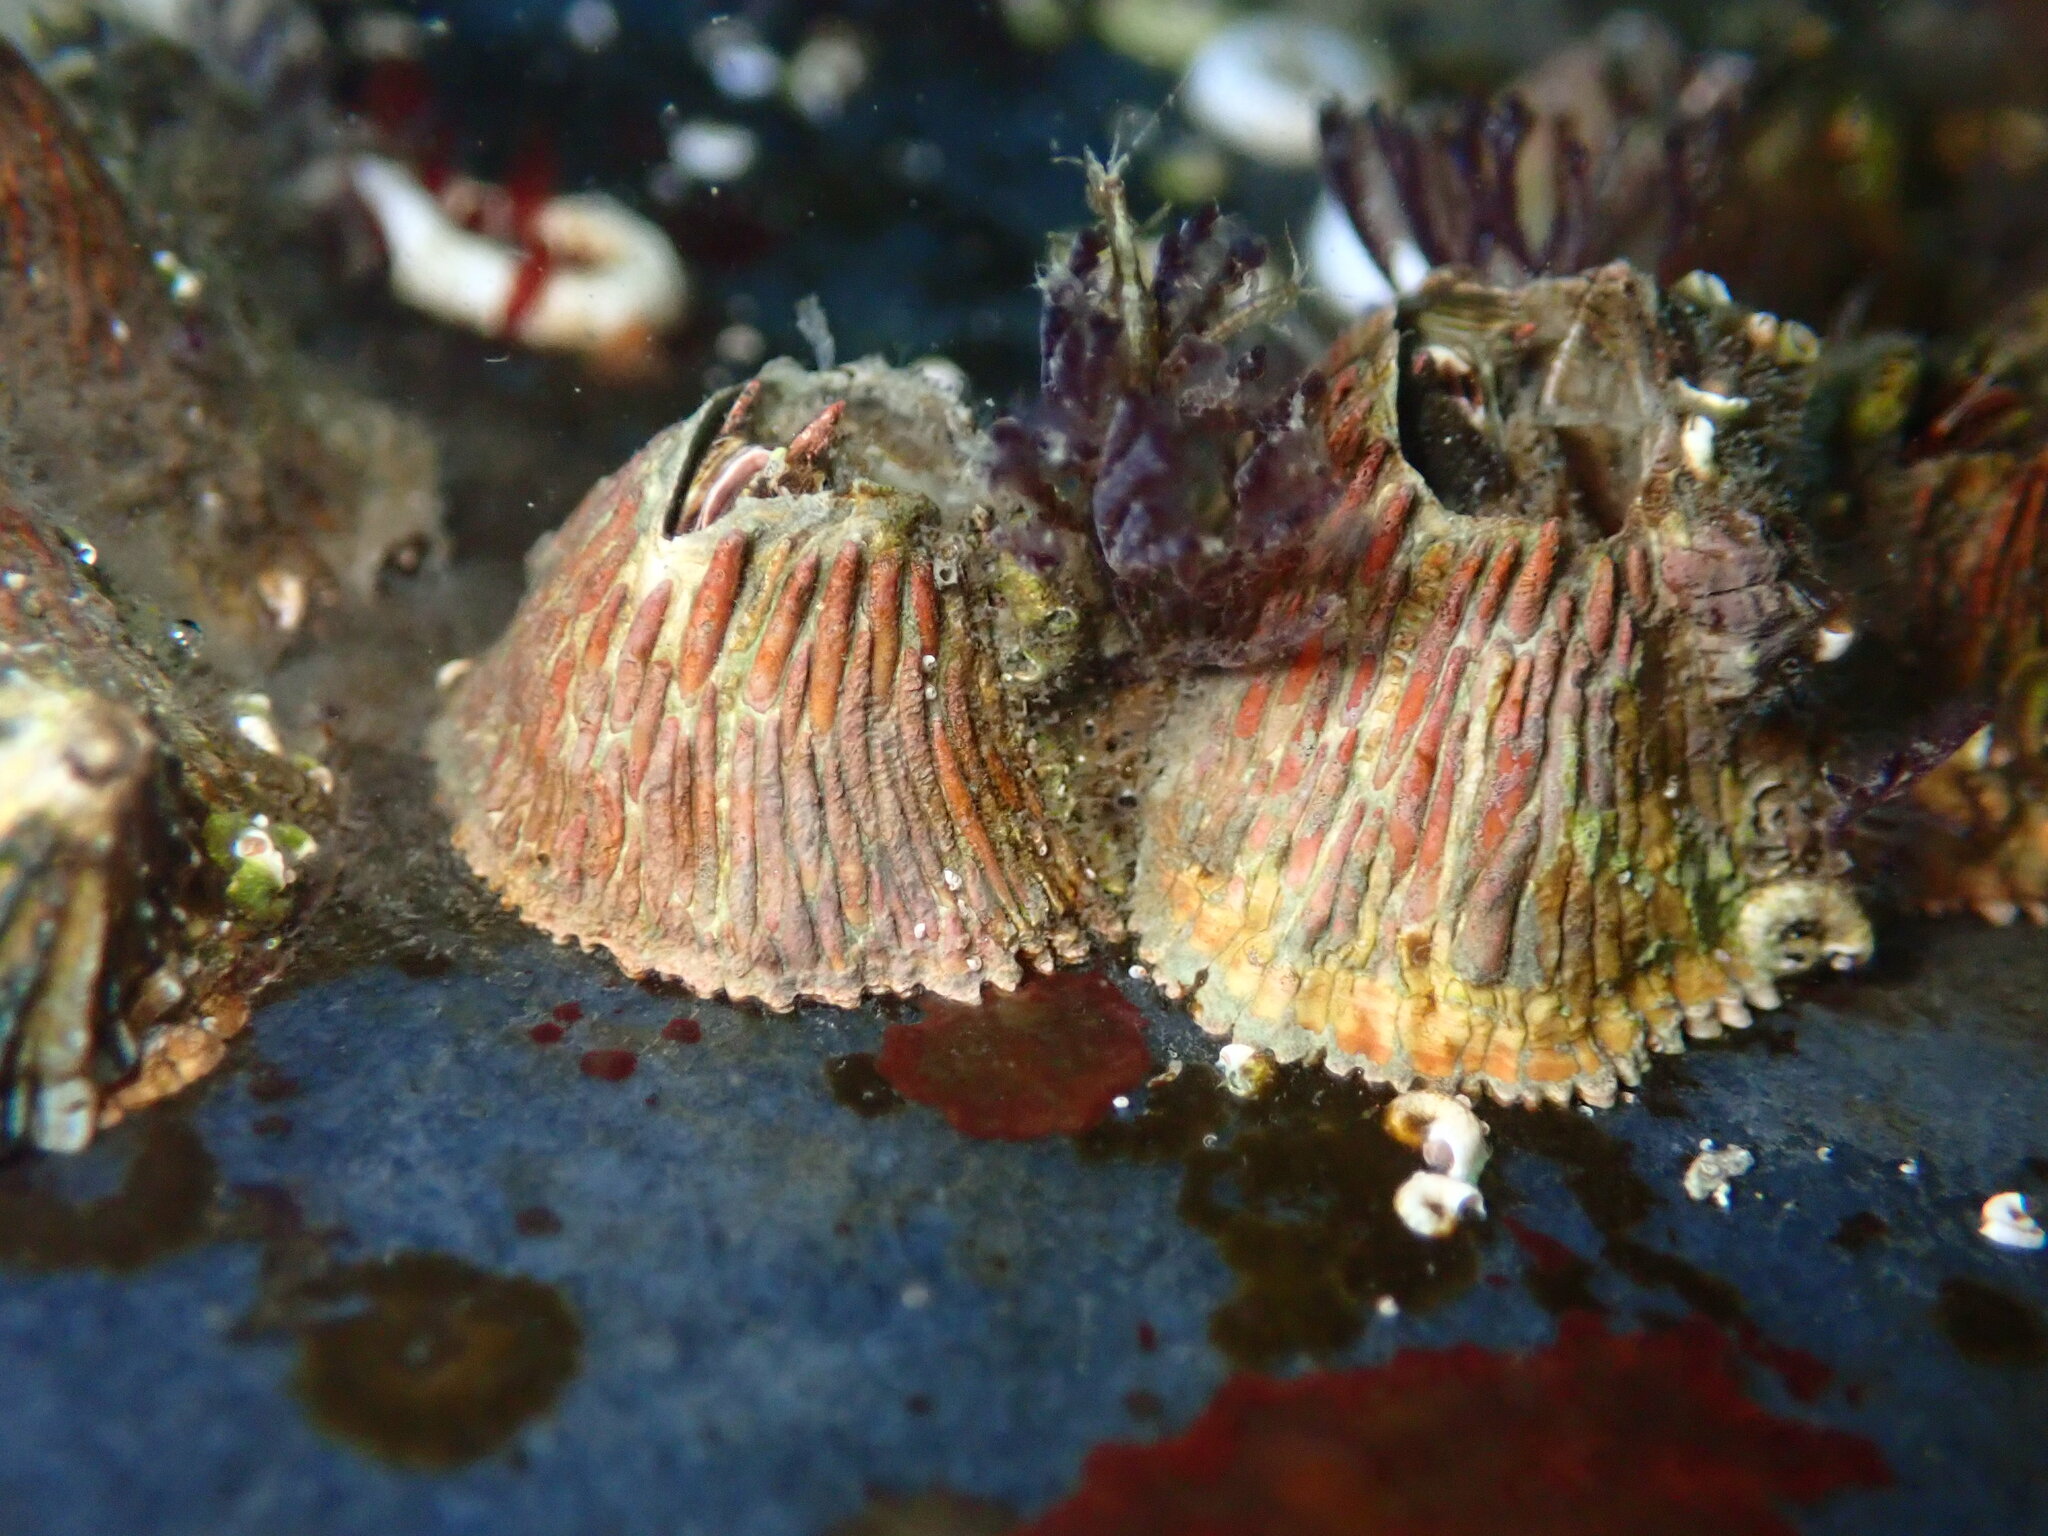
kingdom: Animalia
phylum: Arthropoda
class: Maxillopoda
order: Sessilia
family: Tetraclitidae
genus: Tetraclita
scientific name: Tetraclita rubescens
